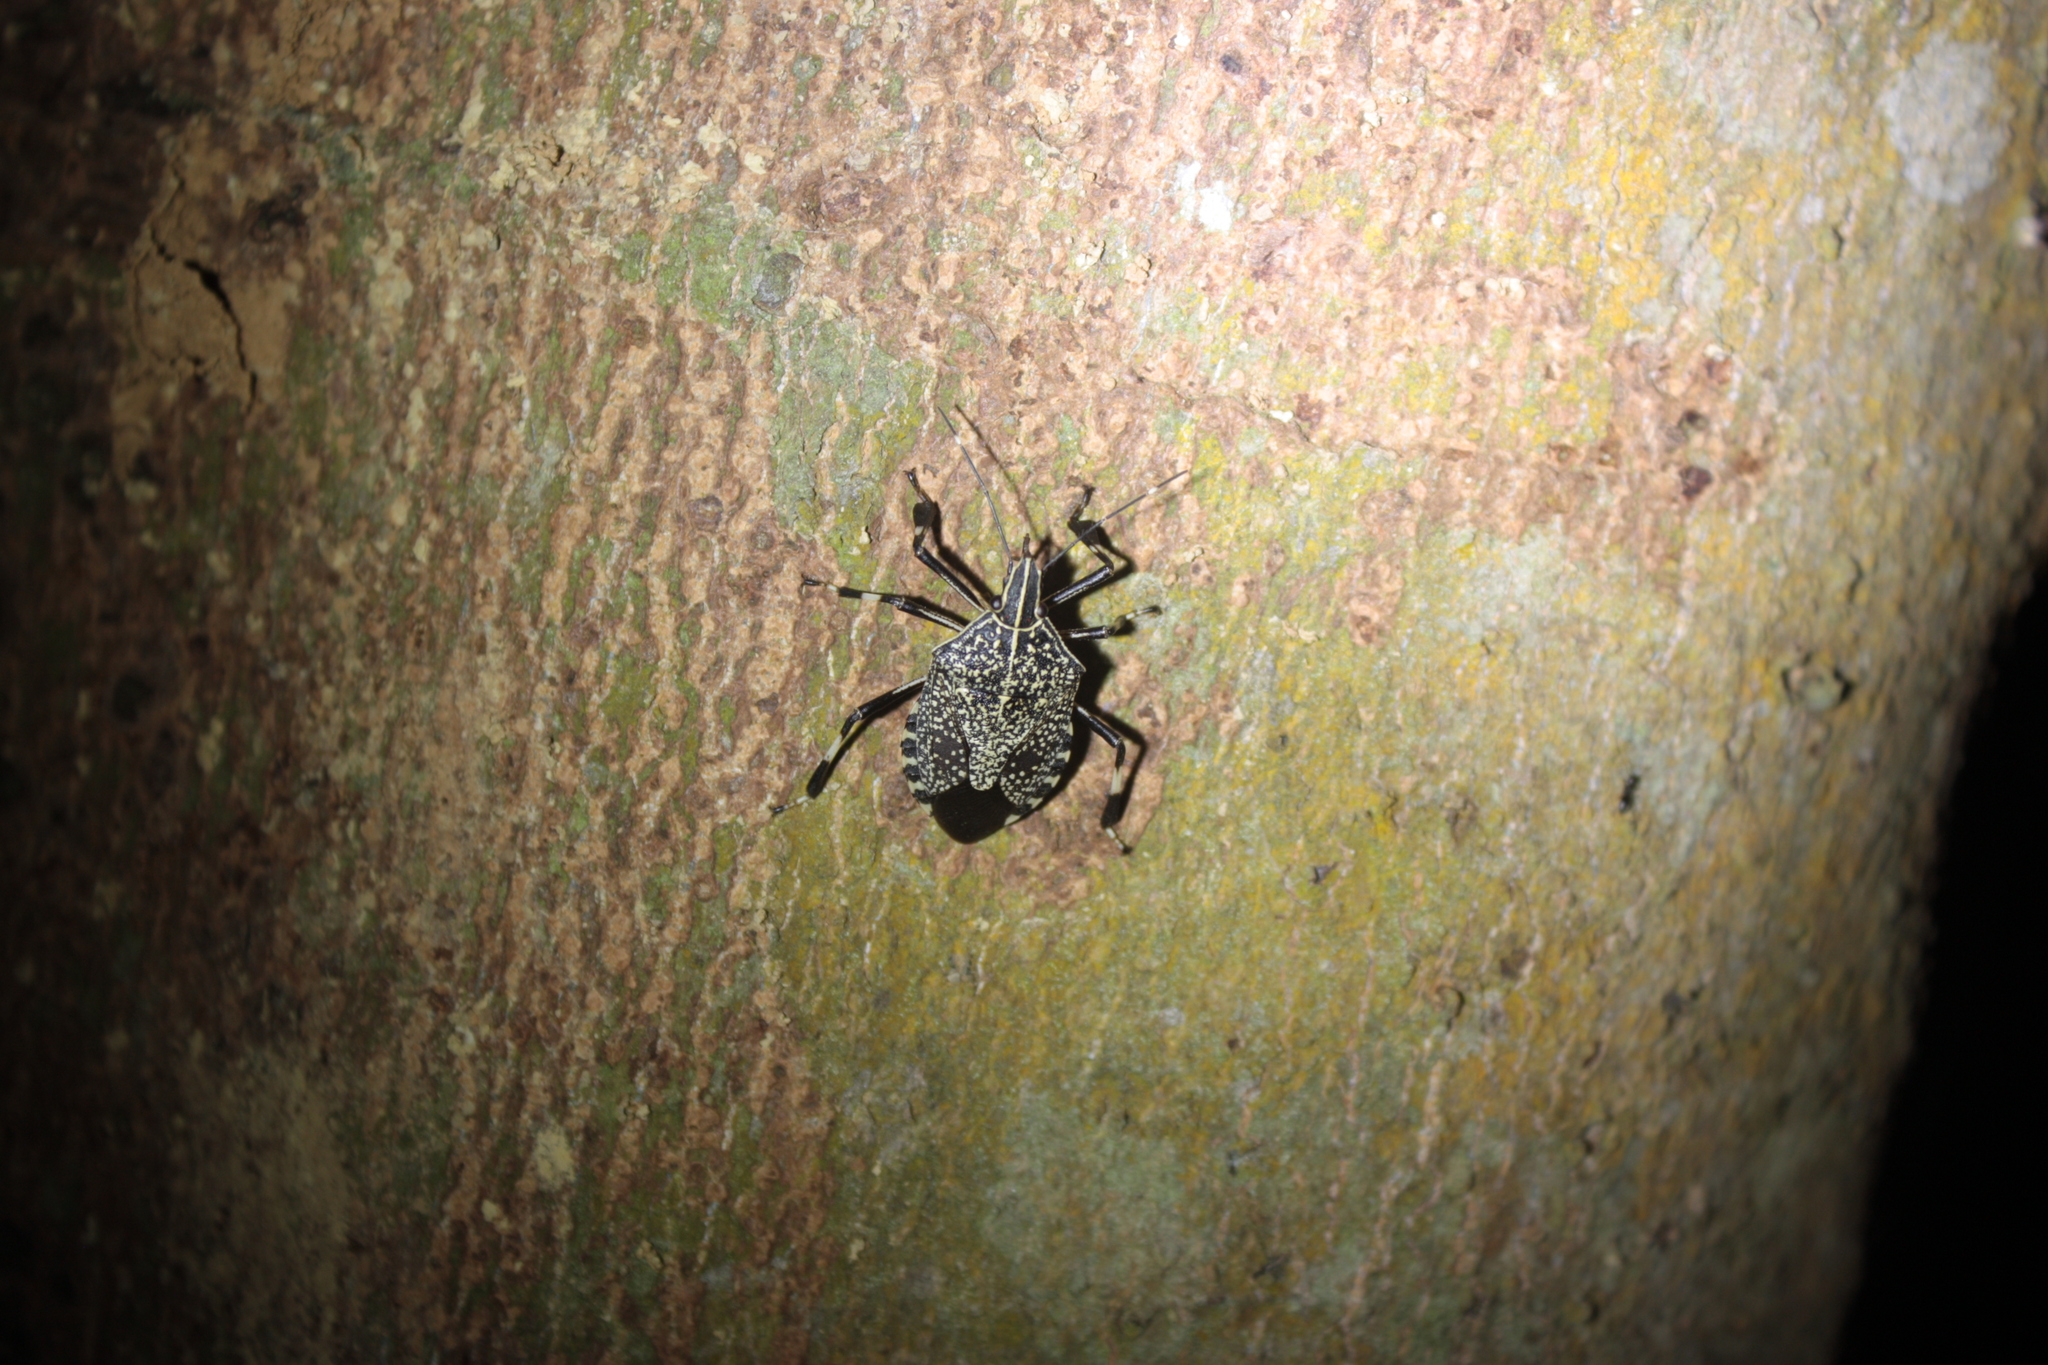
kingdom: Animalia
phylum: Arthropoda
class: Insecta
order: Hemiptera
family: Pentatomidae
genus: Erthesina
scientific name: Erthesina fullo
